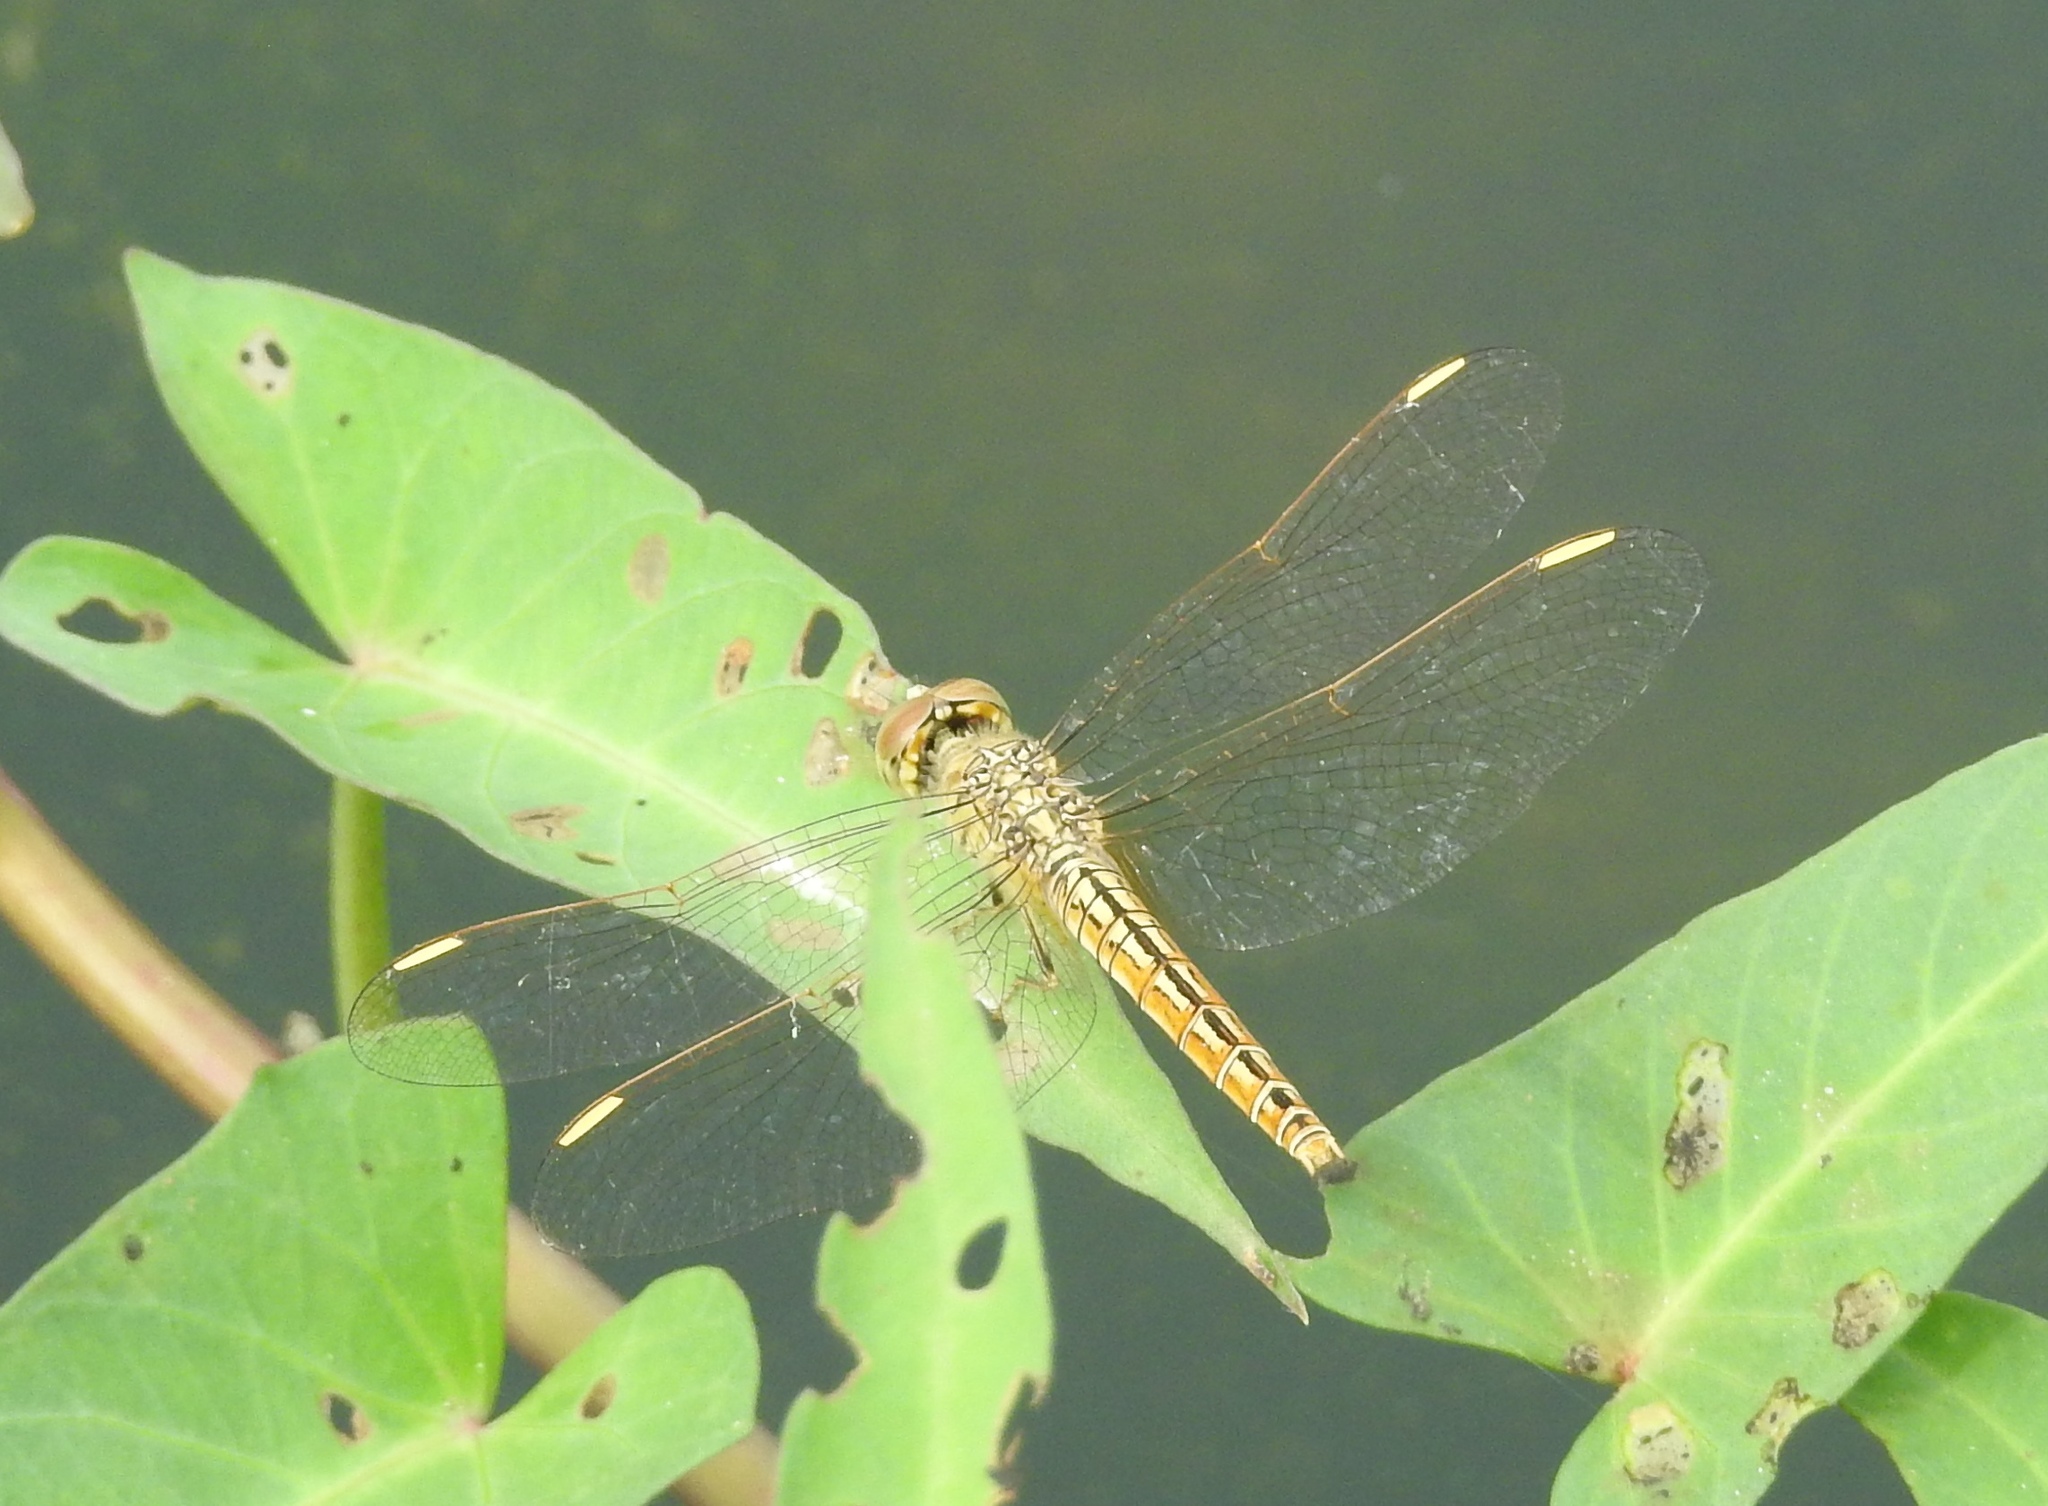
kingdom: Animalia
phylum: Arthropoda
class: Insecta
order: Odonata
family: Libellulidae
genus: Brachythemis
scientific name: Brachythemis contaminata
